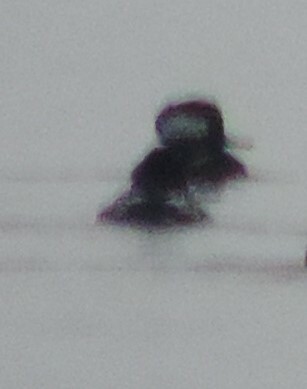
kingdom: Animalia
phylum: Chordata
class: Aves
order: Anseriformes
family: Anatidae
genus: Lophodytes
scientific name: Lophodytes cucullatus
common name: Hooded merganser
